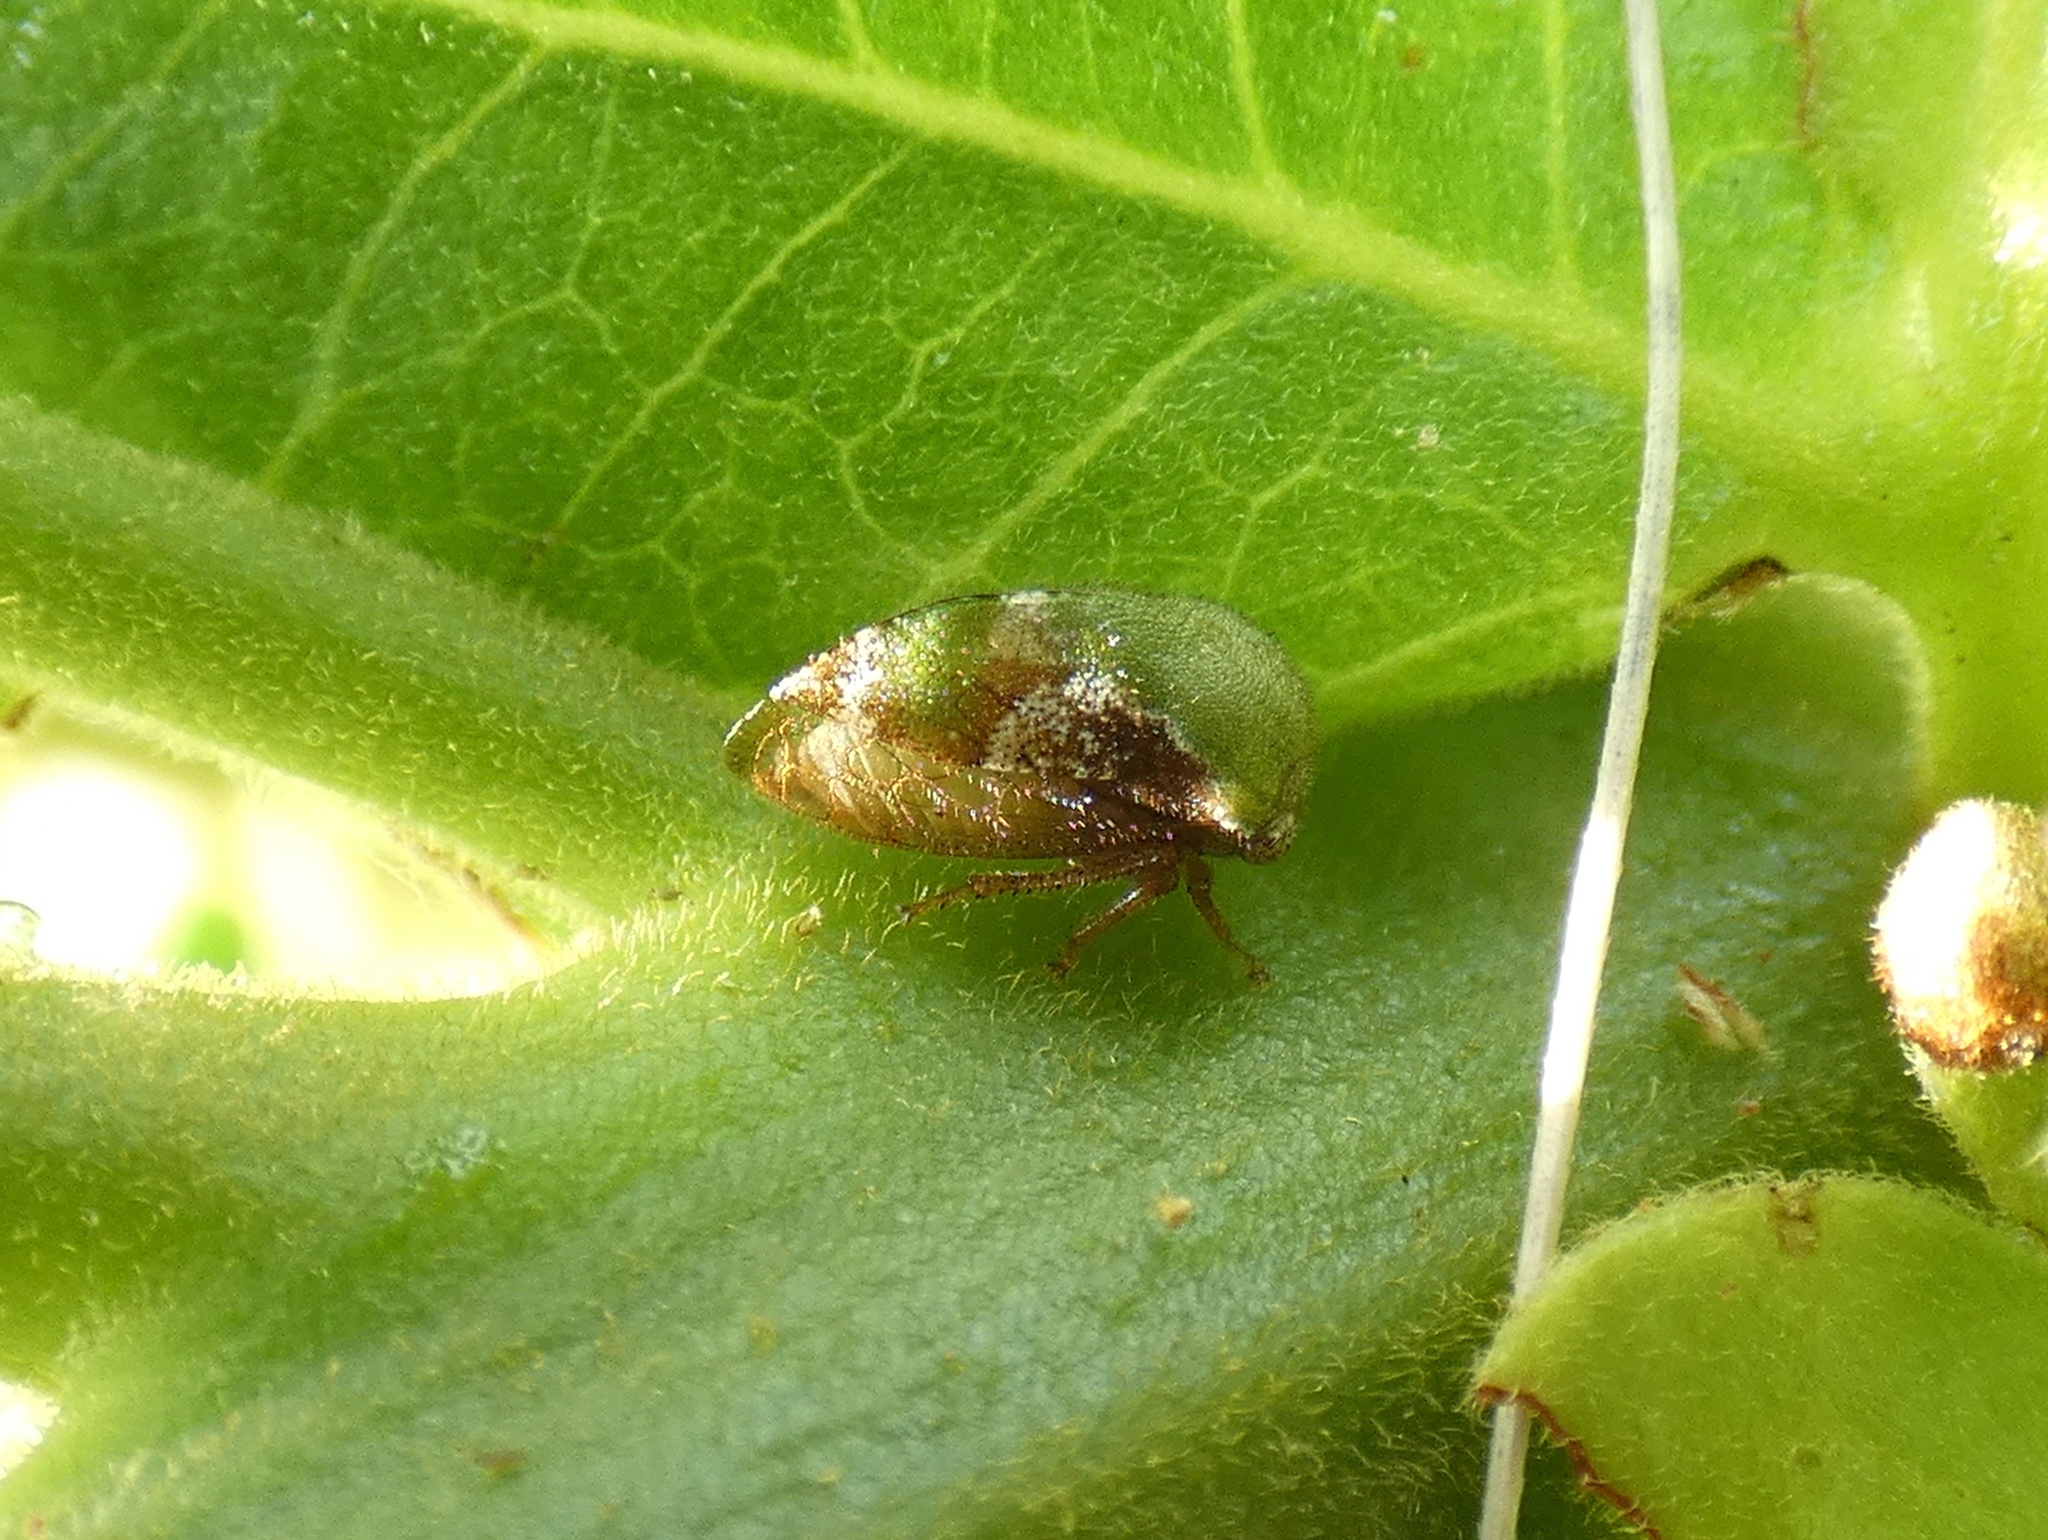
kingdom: Animalia
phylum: Arthropoda
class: Insecta
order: Hemiptera
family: Membracidae
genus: Vanduzea
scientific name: Vanduzea segmentata
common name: Membracid bug
